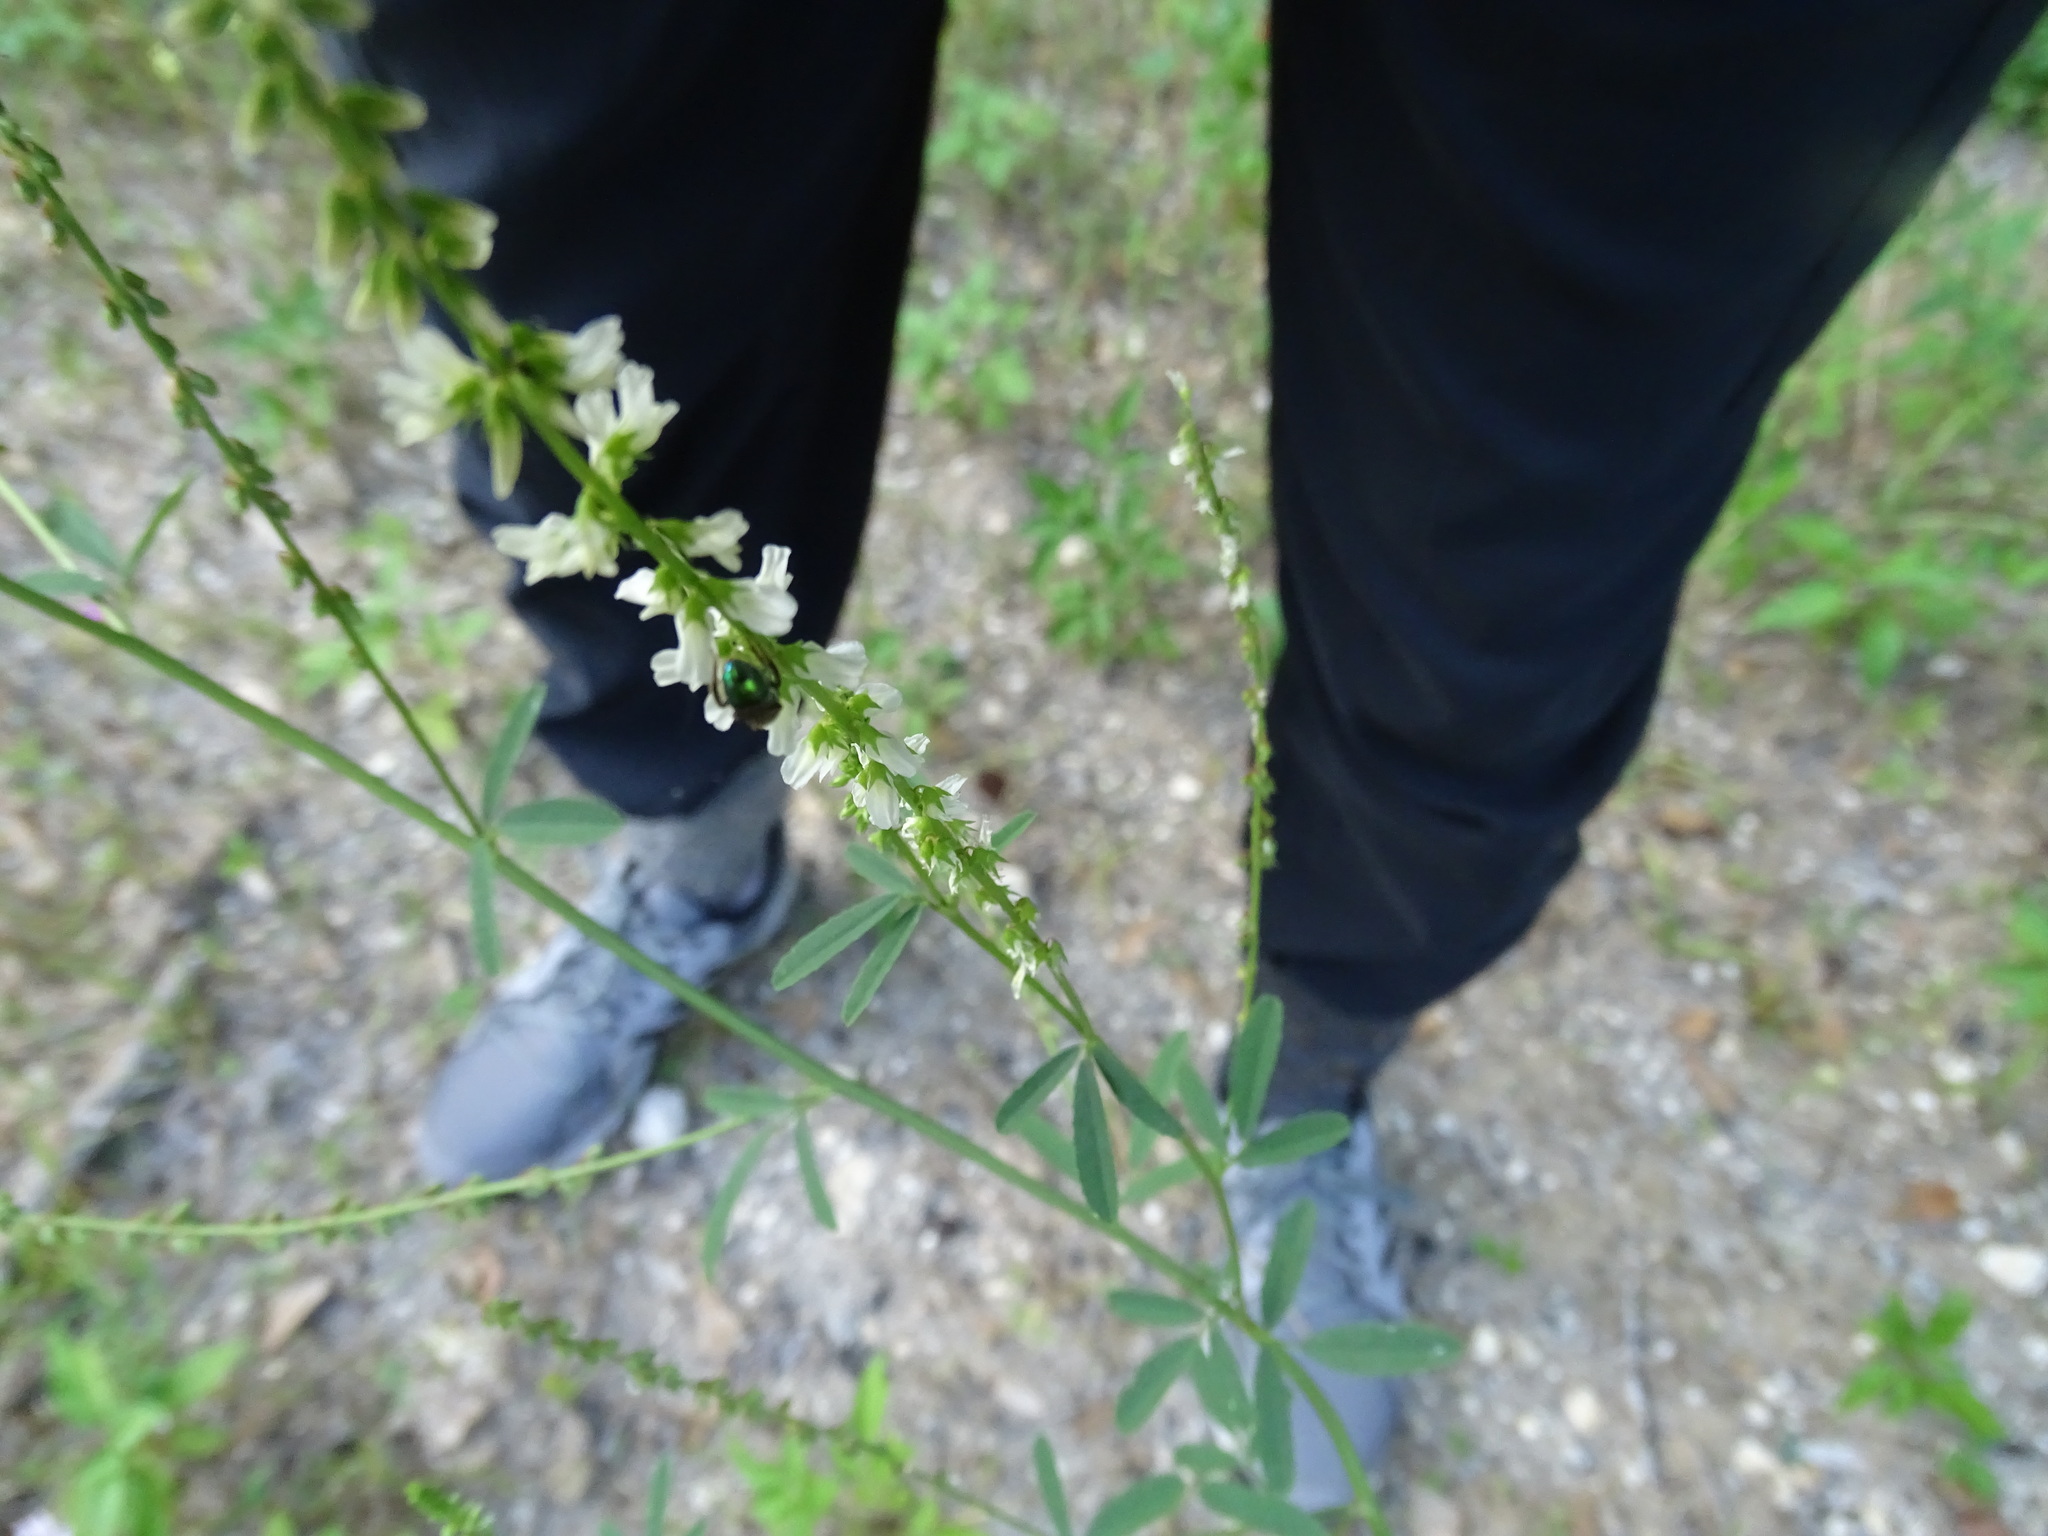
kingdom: Plantae
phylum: Tracheophyta
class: Magnoliopsida
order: Fabales
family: Fabaceae
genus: Melilotus
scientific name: Melilotus albus
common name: White melilot
